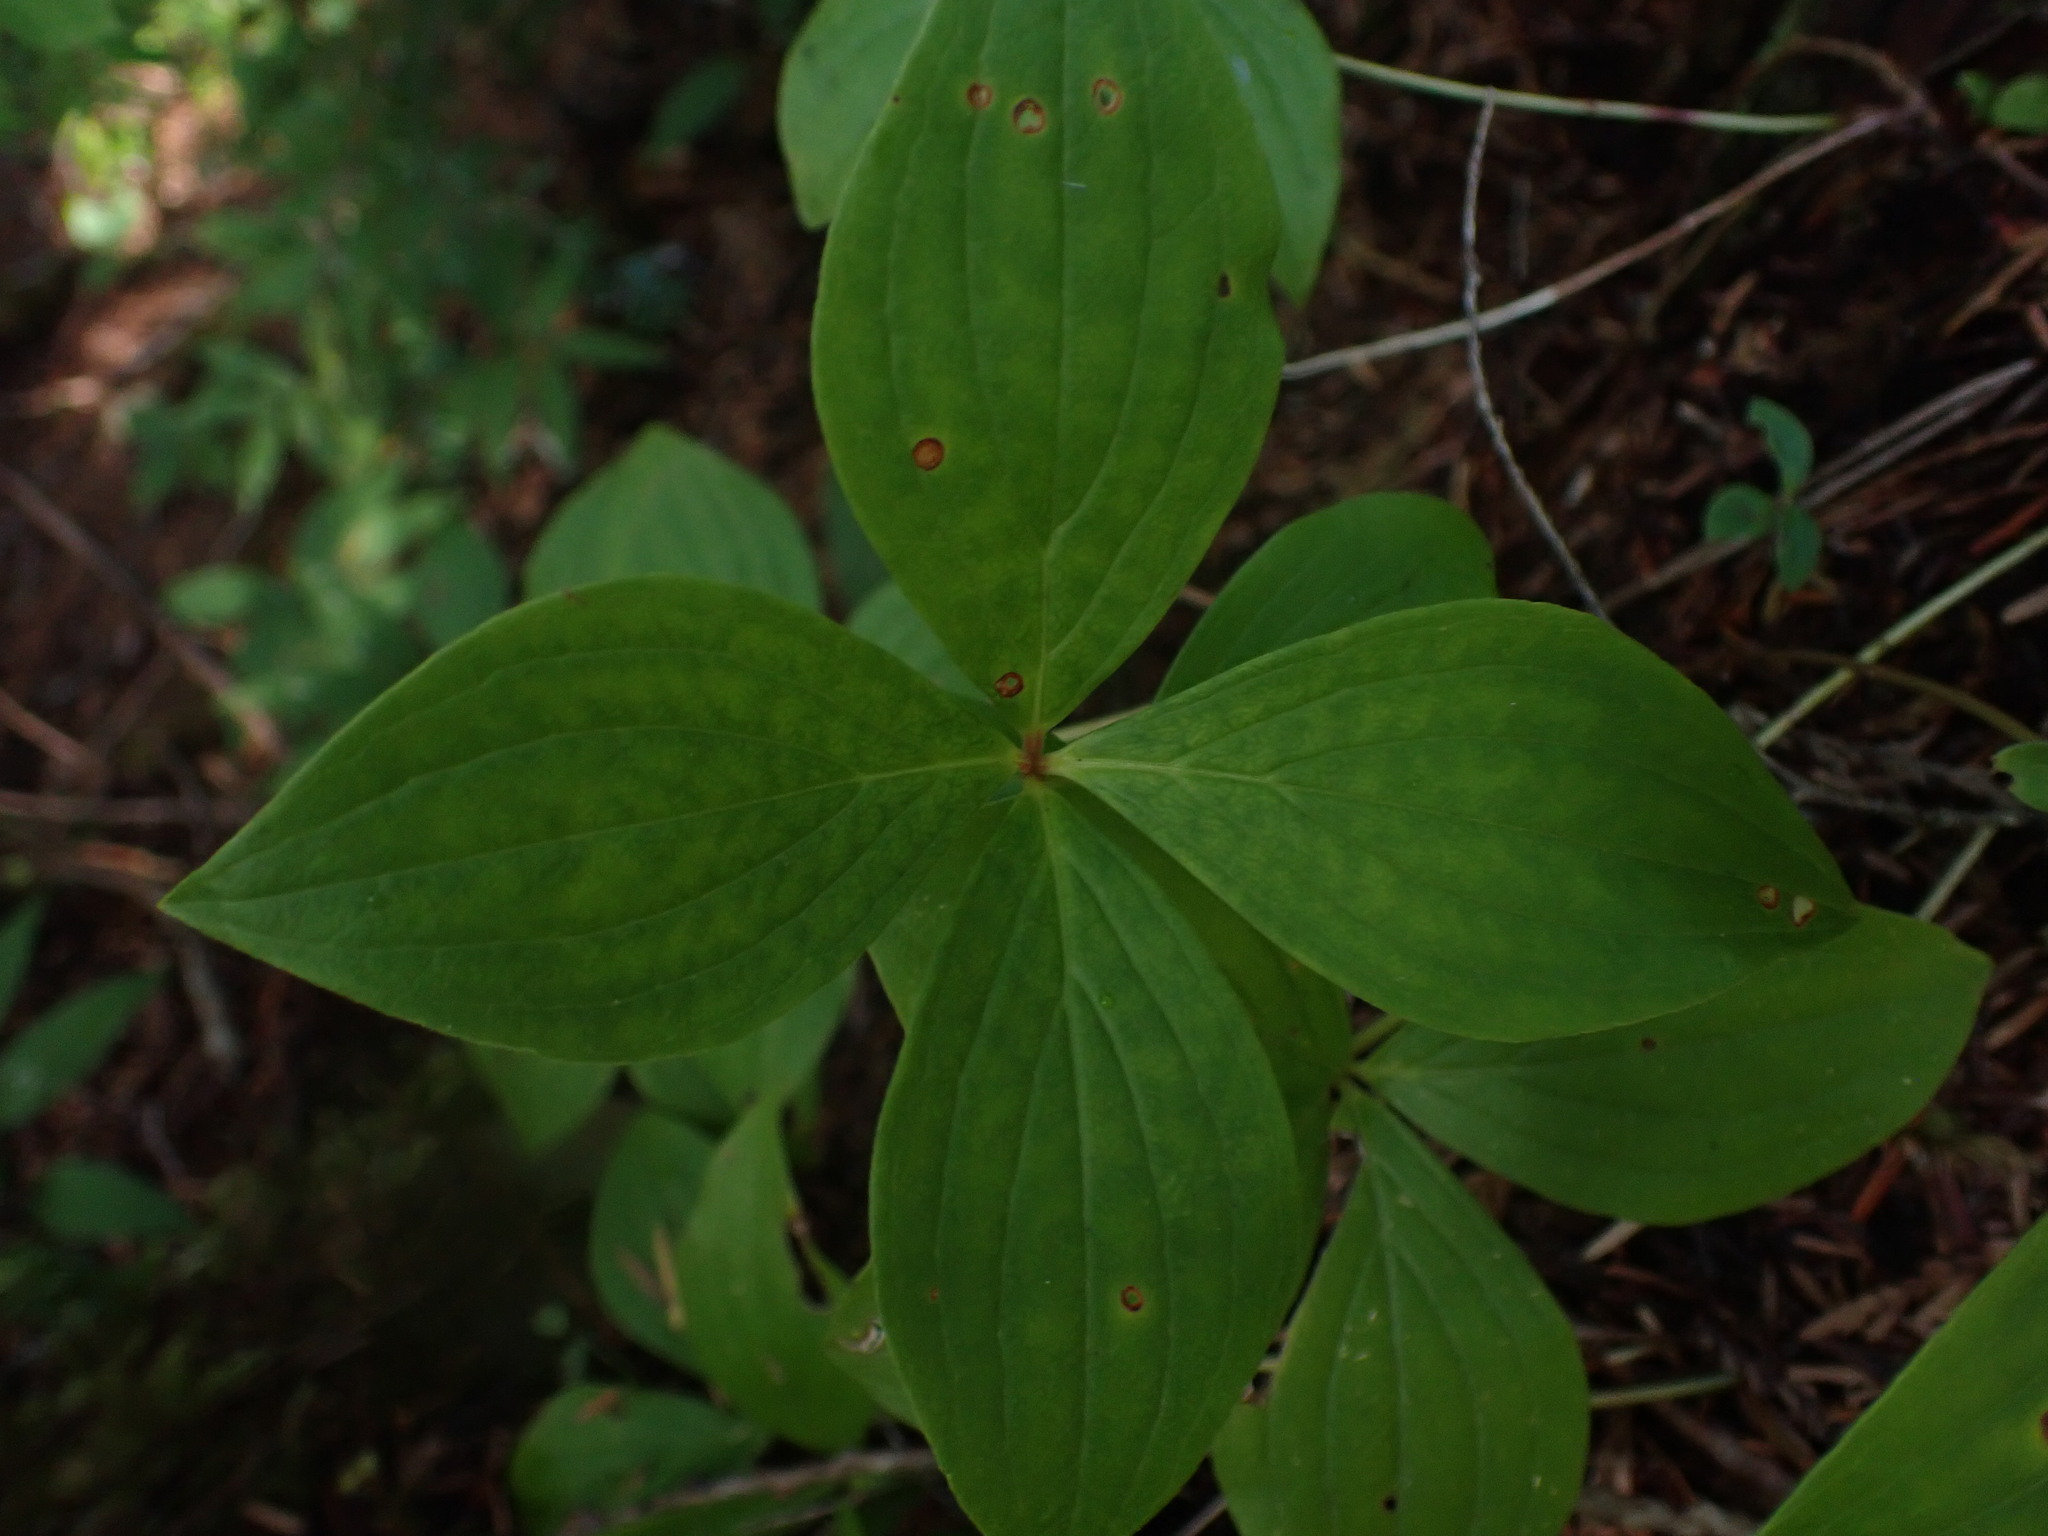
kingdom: Plantae
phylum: Tracheophyta
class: Magnoliopsida
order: Cornales
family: Cornaceae
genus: Cornus
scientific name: Cornus unalaschkensis
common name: Alaska bunchberry
